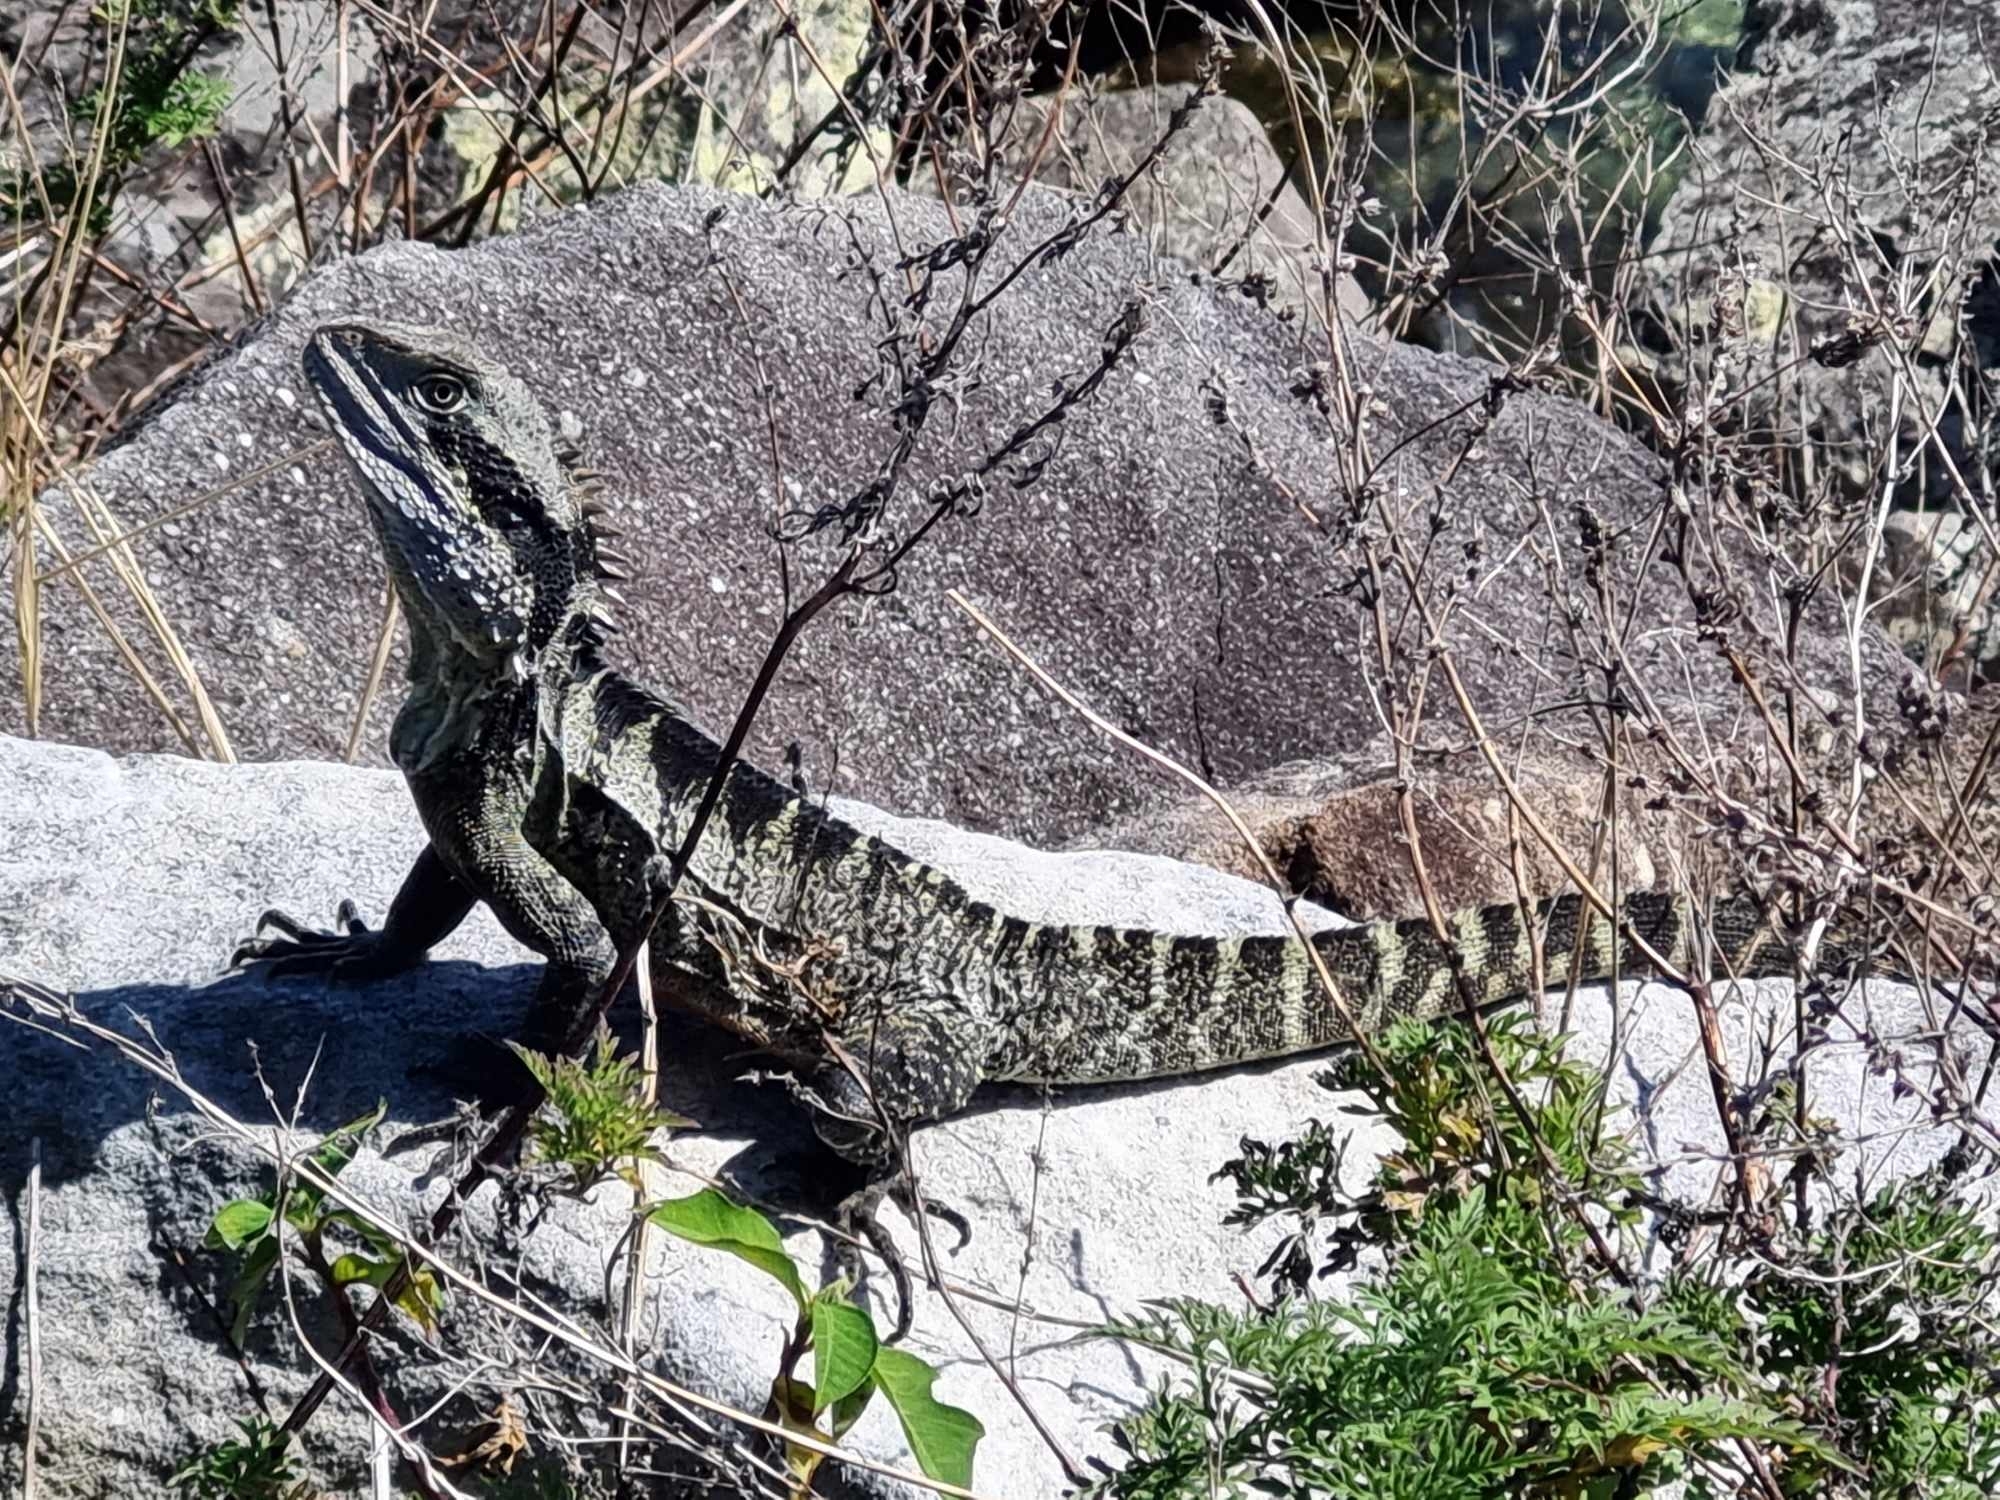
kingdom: Animalia
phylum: Chordata
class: Squamata
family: Agamidae
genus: Intellagama
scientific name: Intellagama lesueurii
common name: Eastern water dragon
